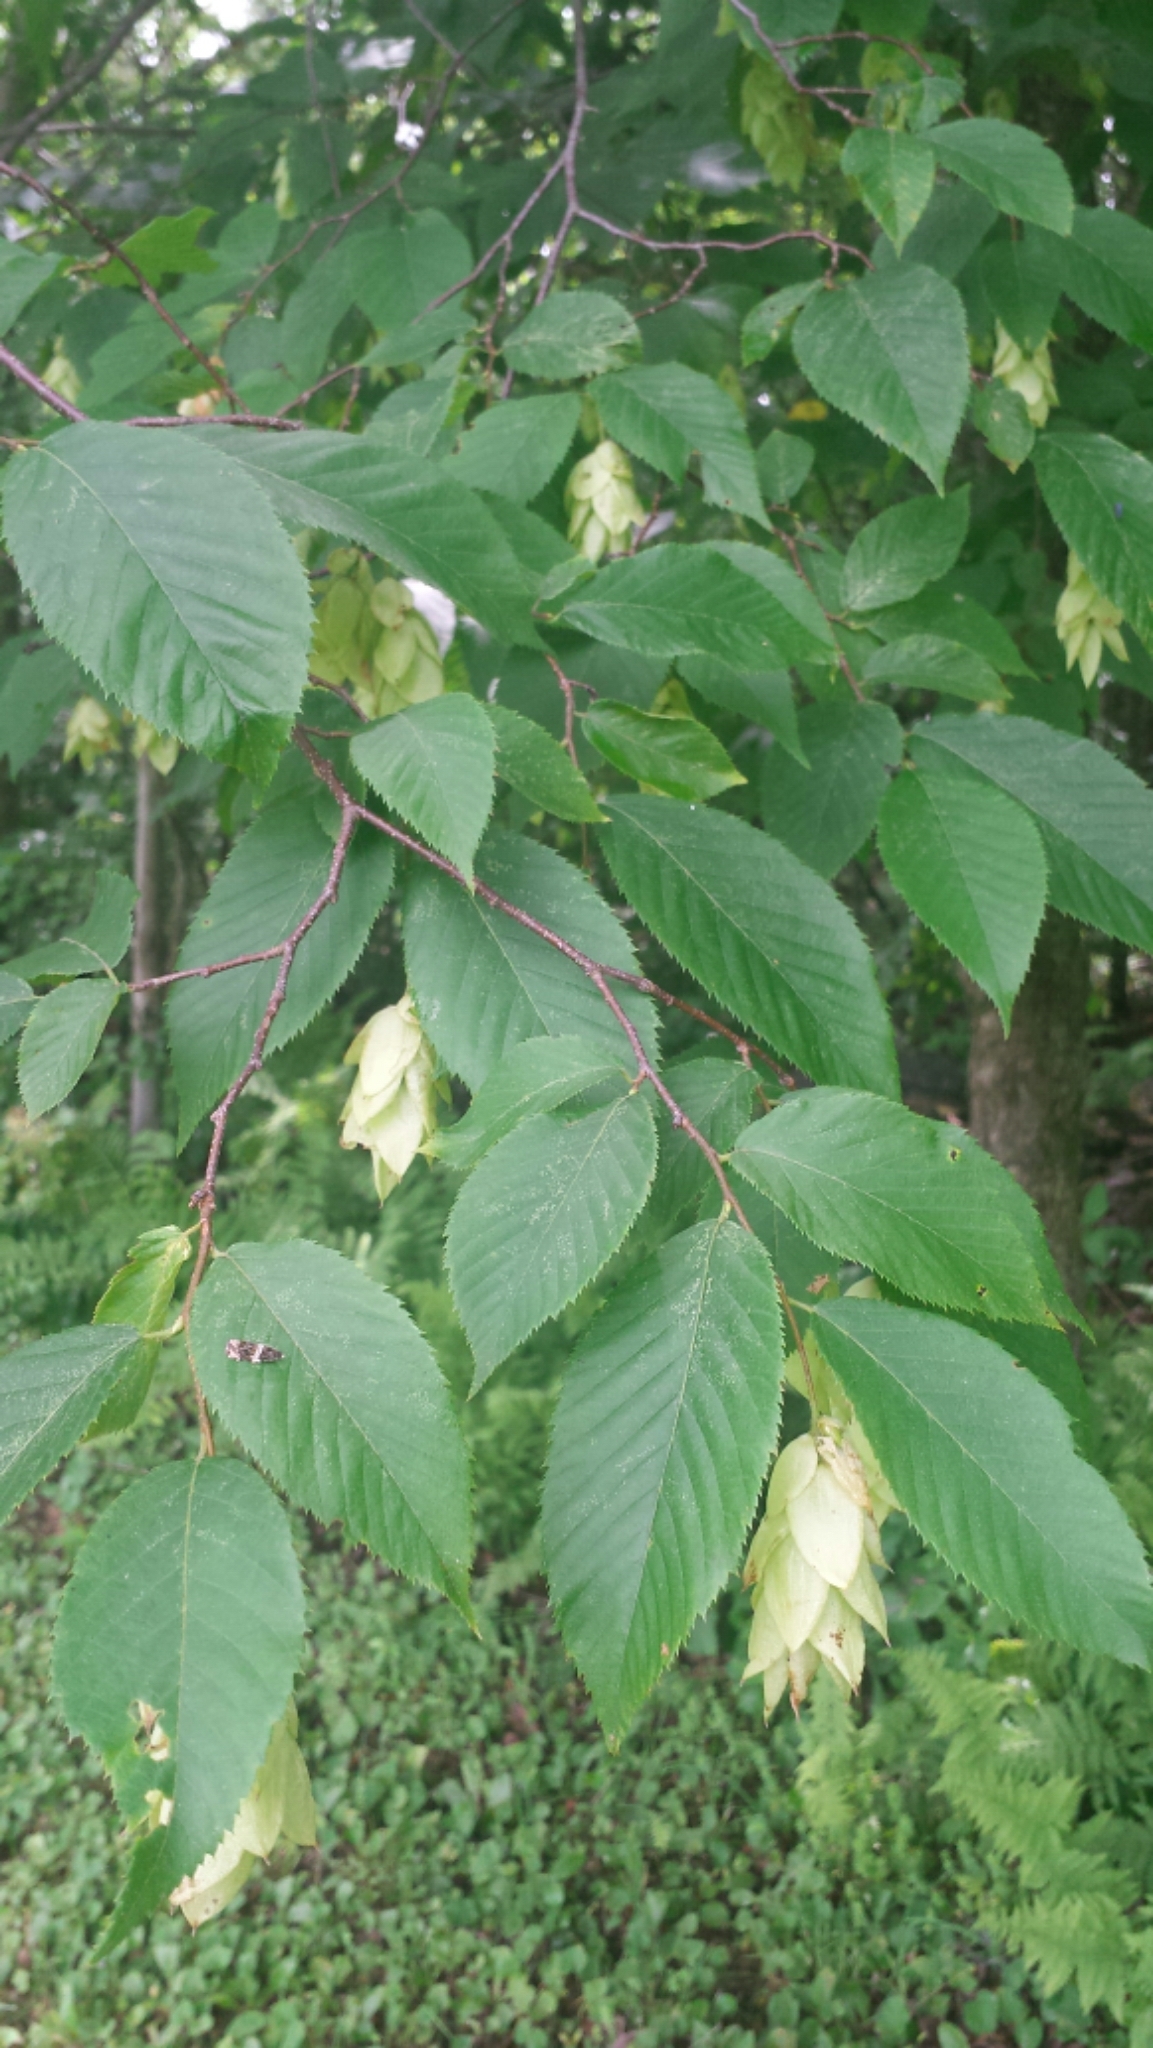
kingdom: Plantae
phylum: Tracheophyta
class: Magnoliopsida
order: Fagales
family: Betulaceae
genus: Ostrya
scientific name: Ostrya virginiana
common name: Ironwood
